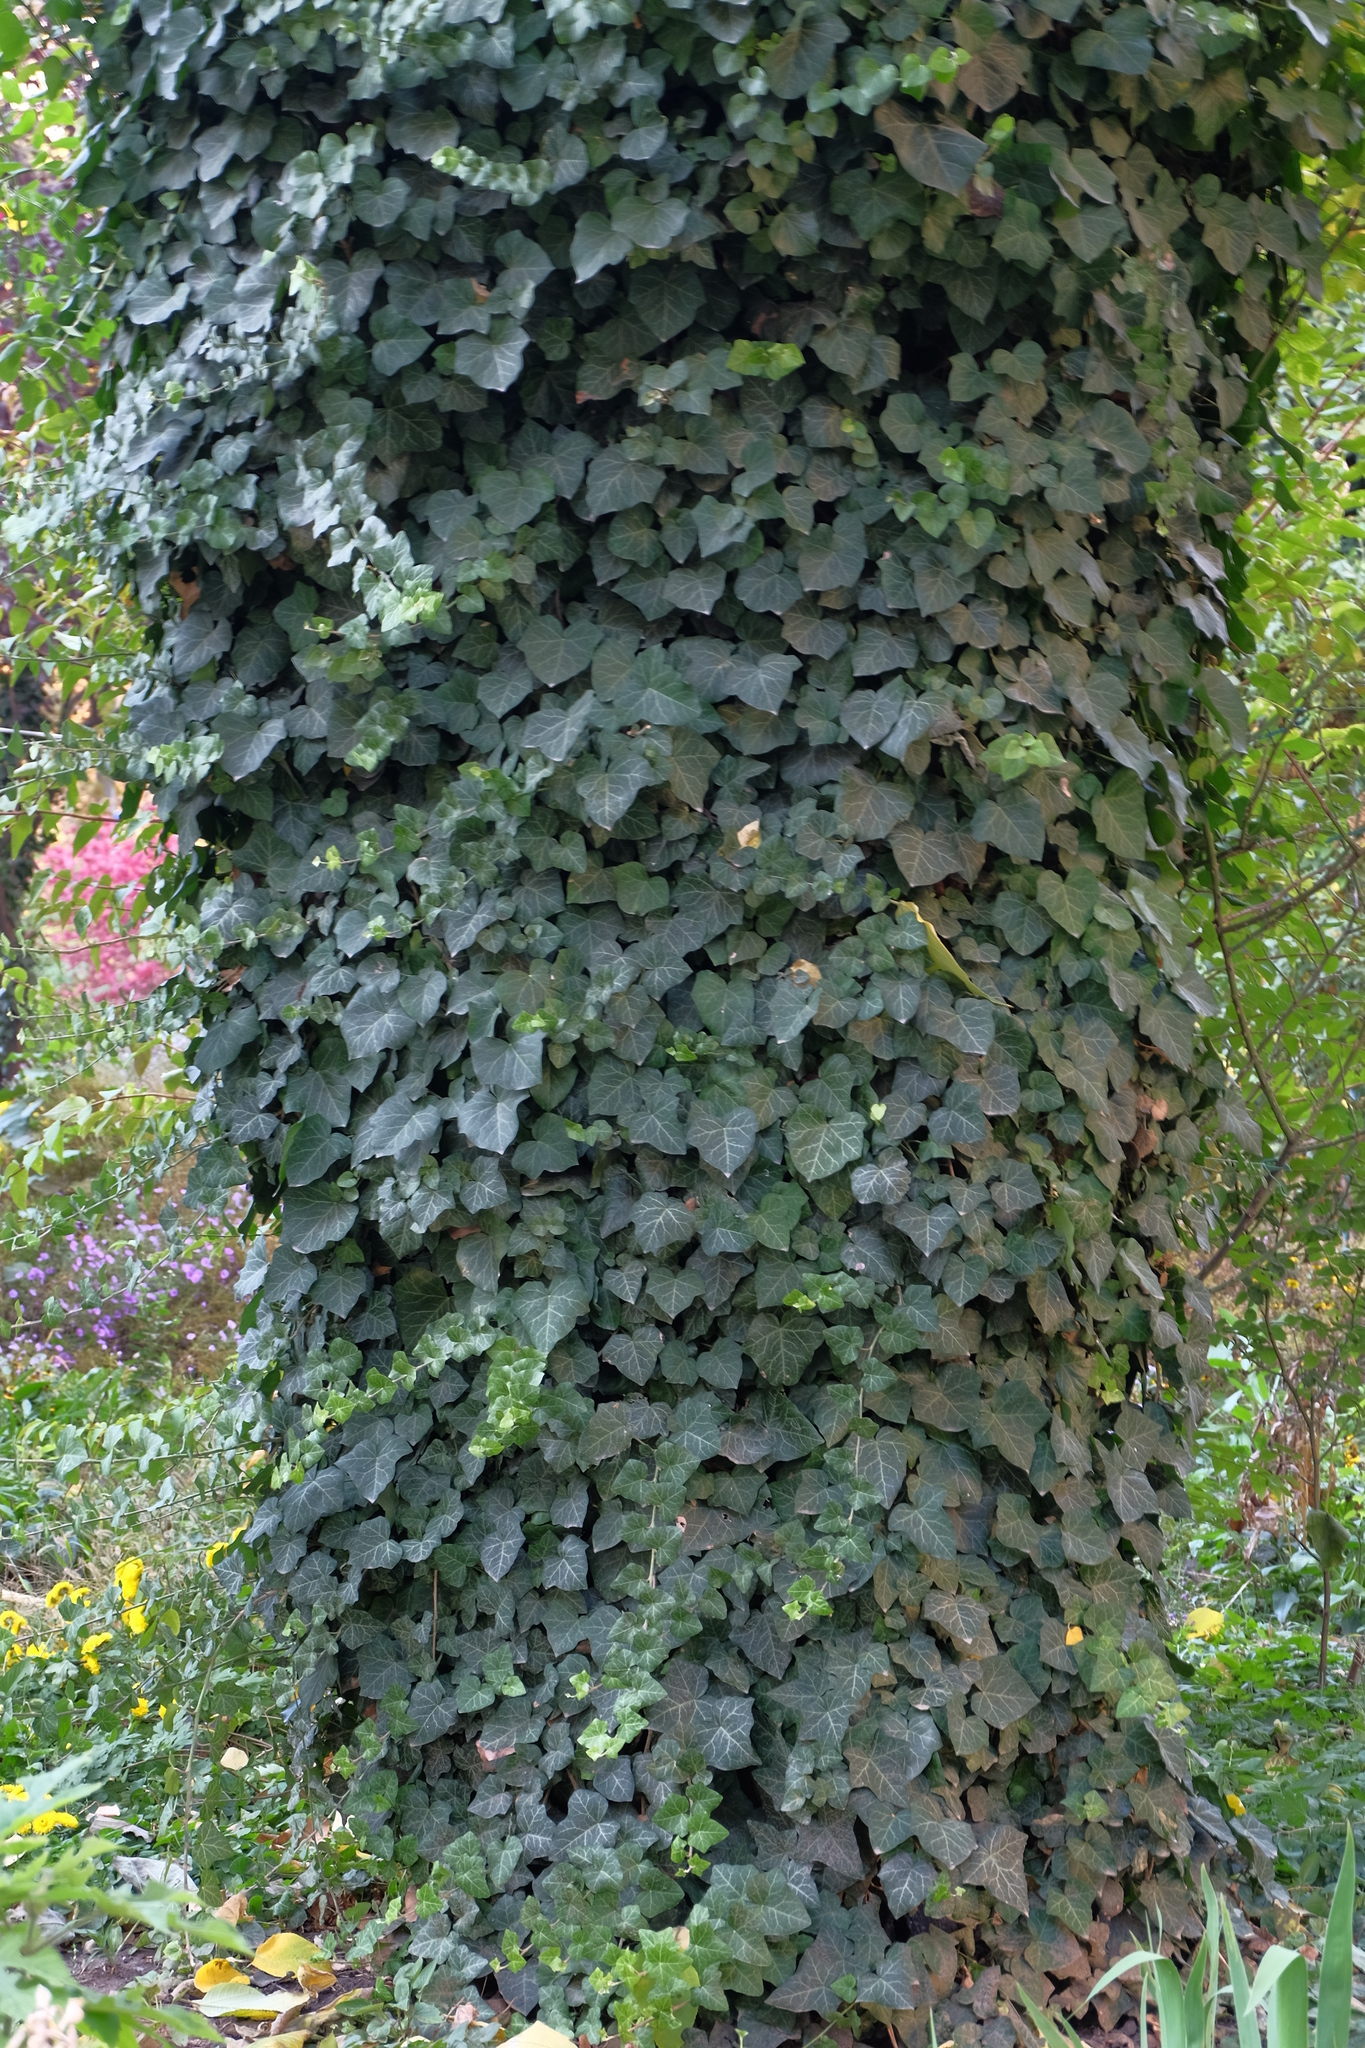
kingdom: Plantae
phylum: Tracheophyta
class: Magnoliopsida
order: Apiales
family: Araliaceae
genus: Hedera
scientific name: Hedera helix
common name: Ivy
